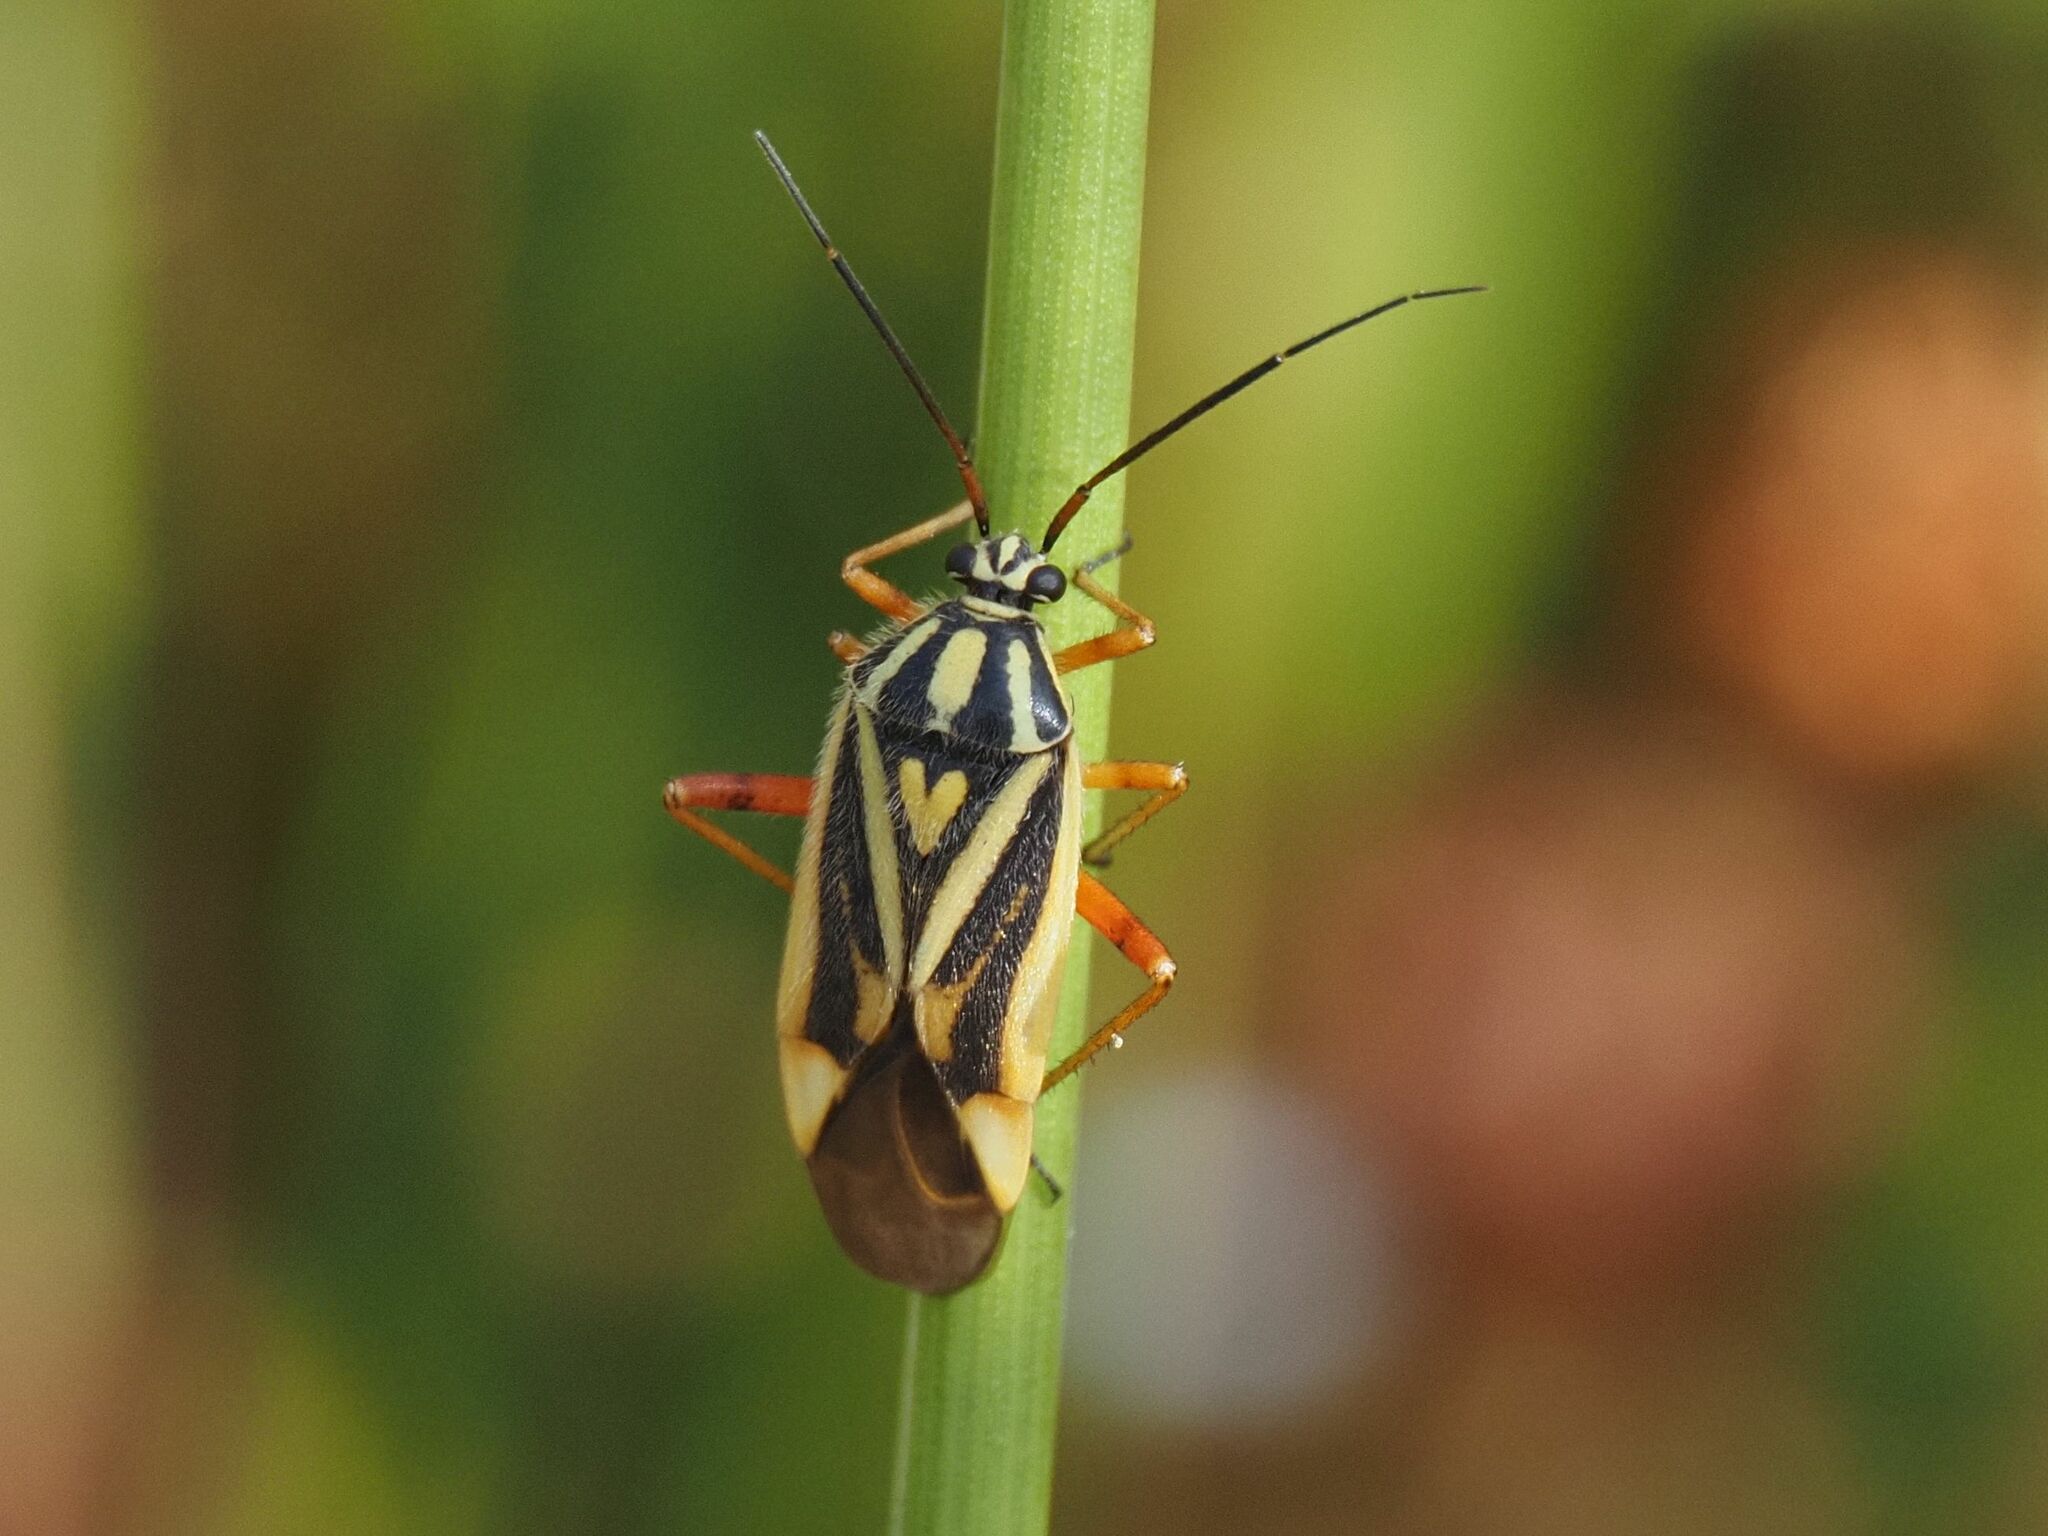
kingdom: Animalia
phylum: Arthropoda
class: Insecta
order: Hemiptera
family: Miridae
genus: Brachycoleus
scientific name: Brachycoleus decolor
